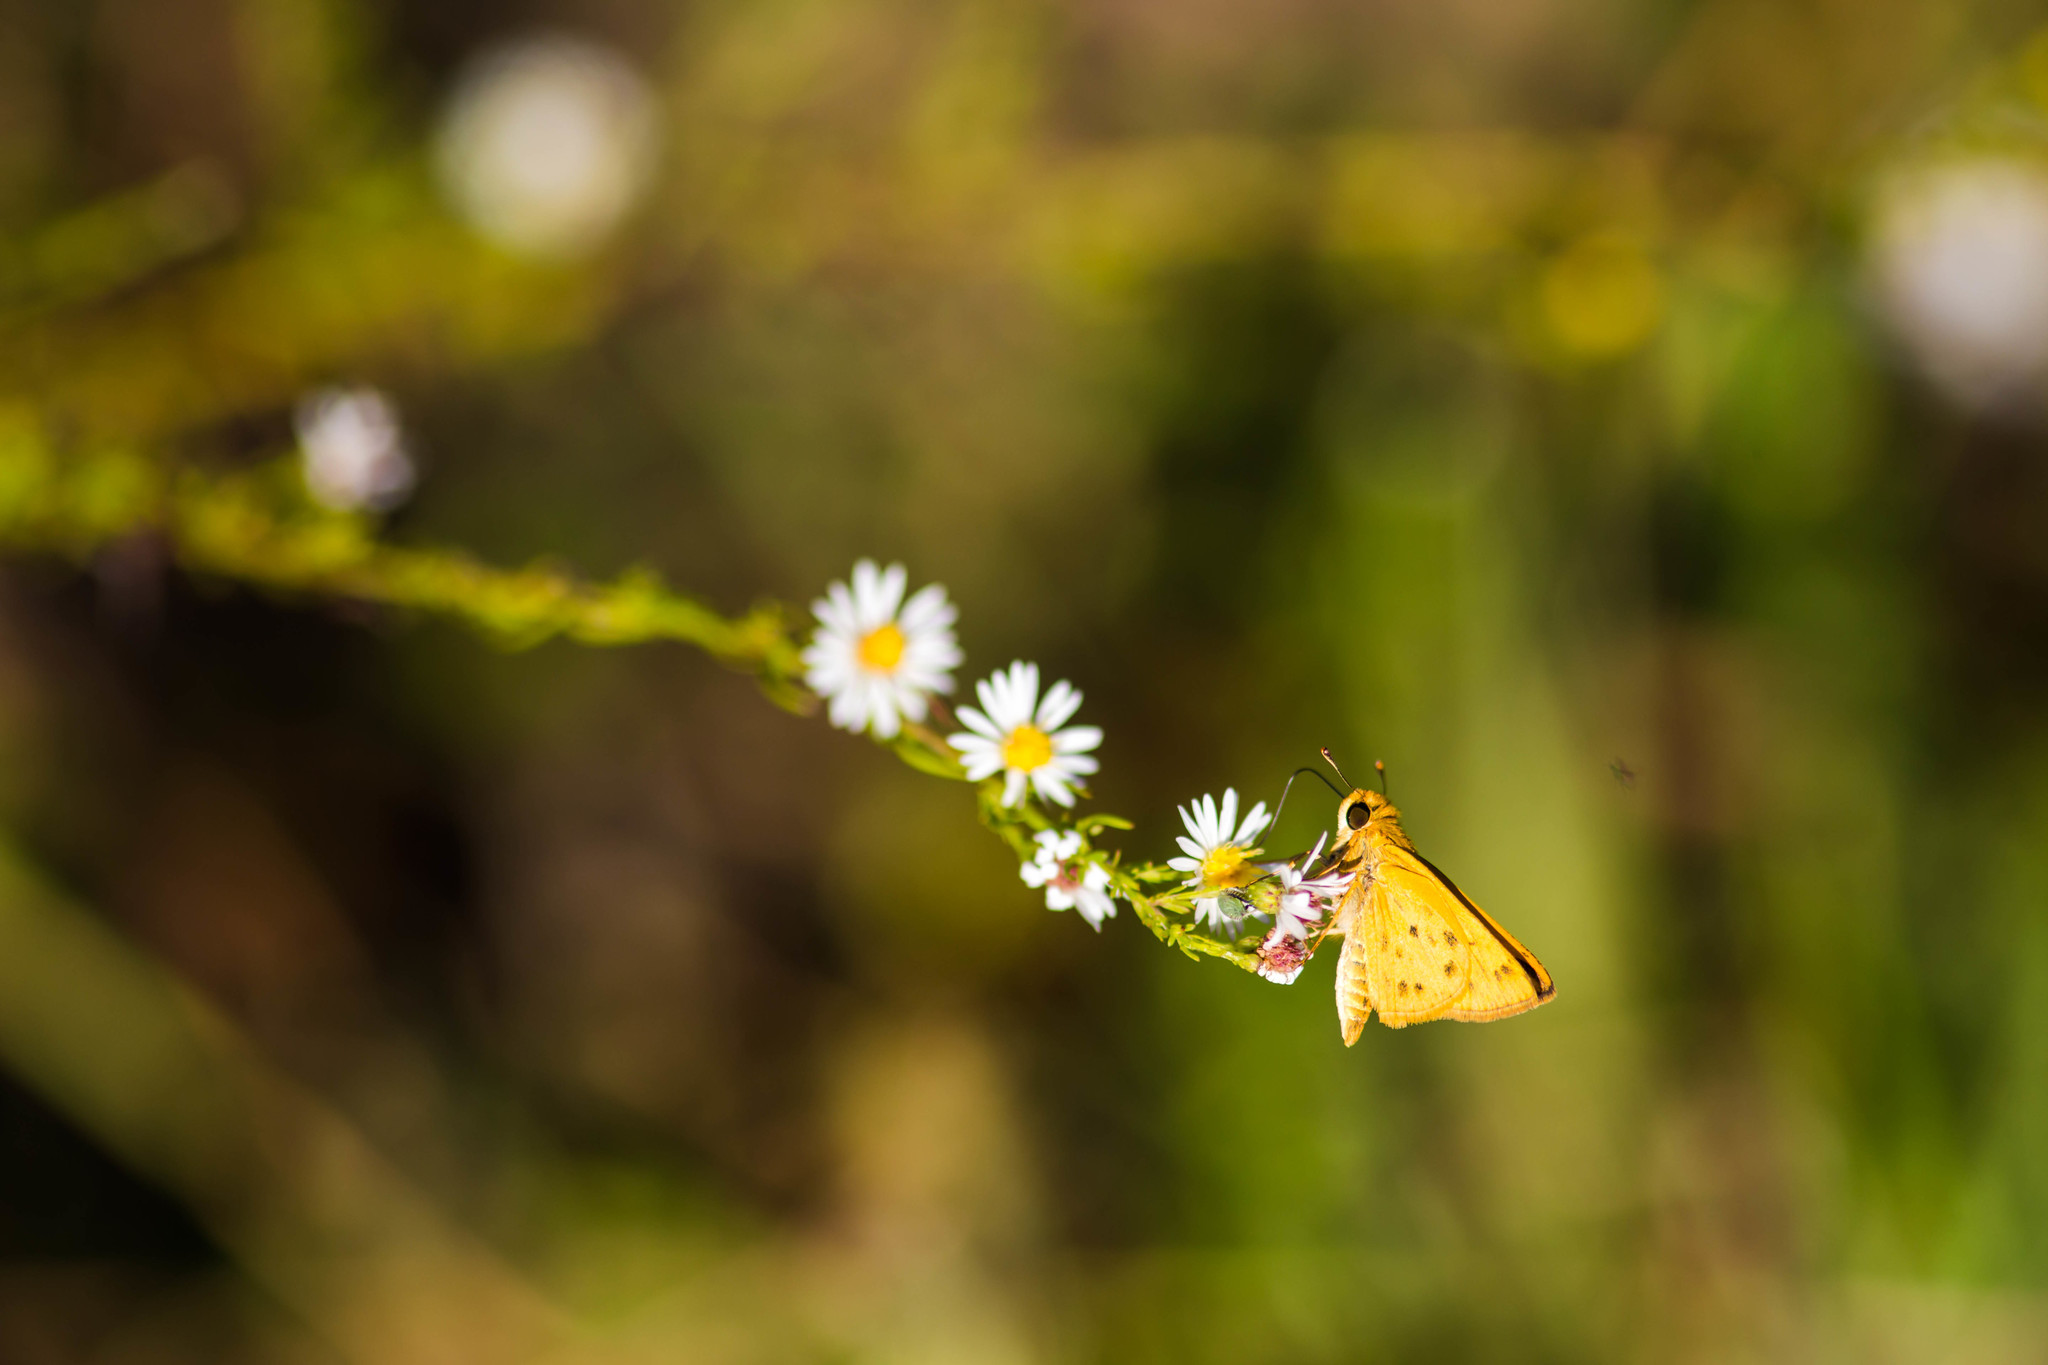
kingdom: Animalia
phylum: Arthropoda
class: Insecta
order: Lepidoptera
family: Hesperiidae
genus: Hylephila
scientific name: Hylephila phyleus
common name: Fiery skipper
